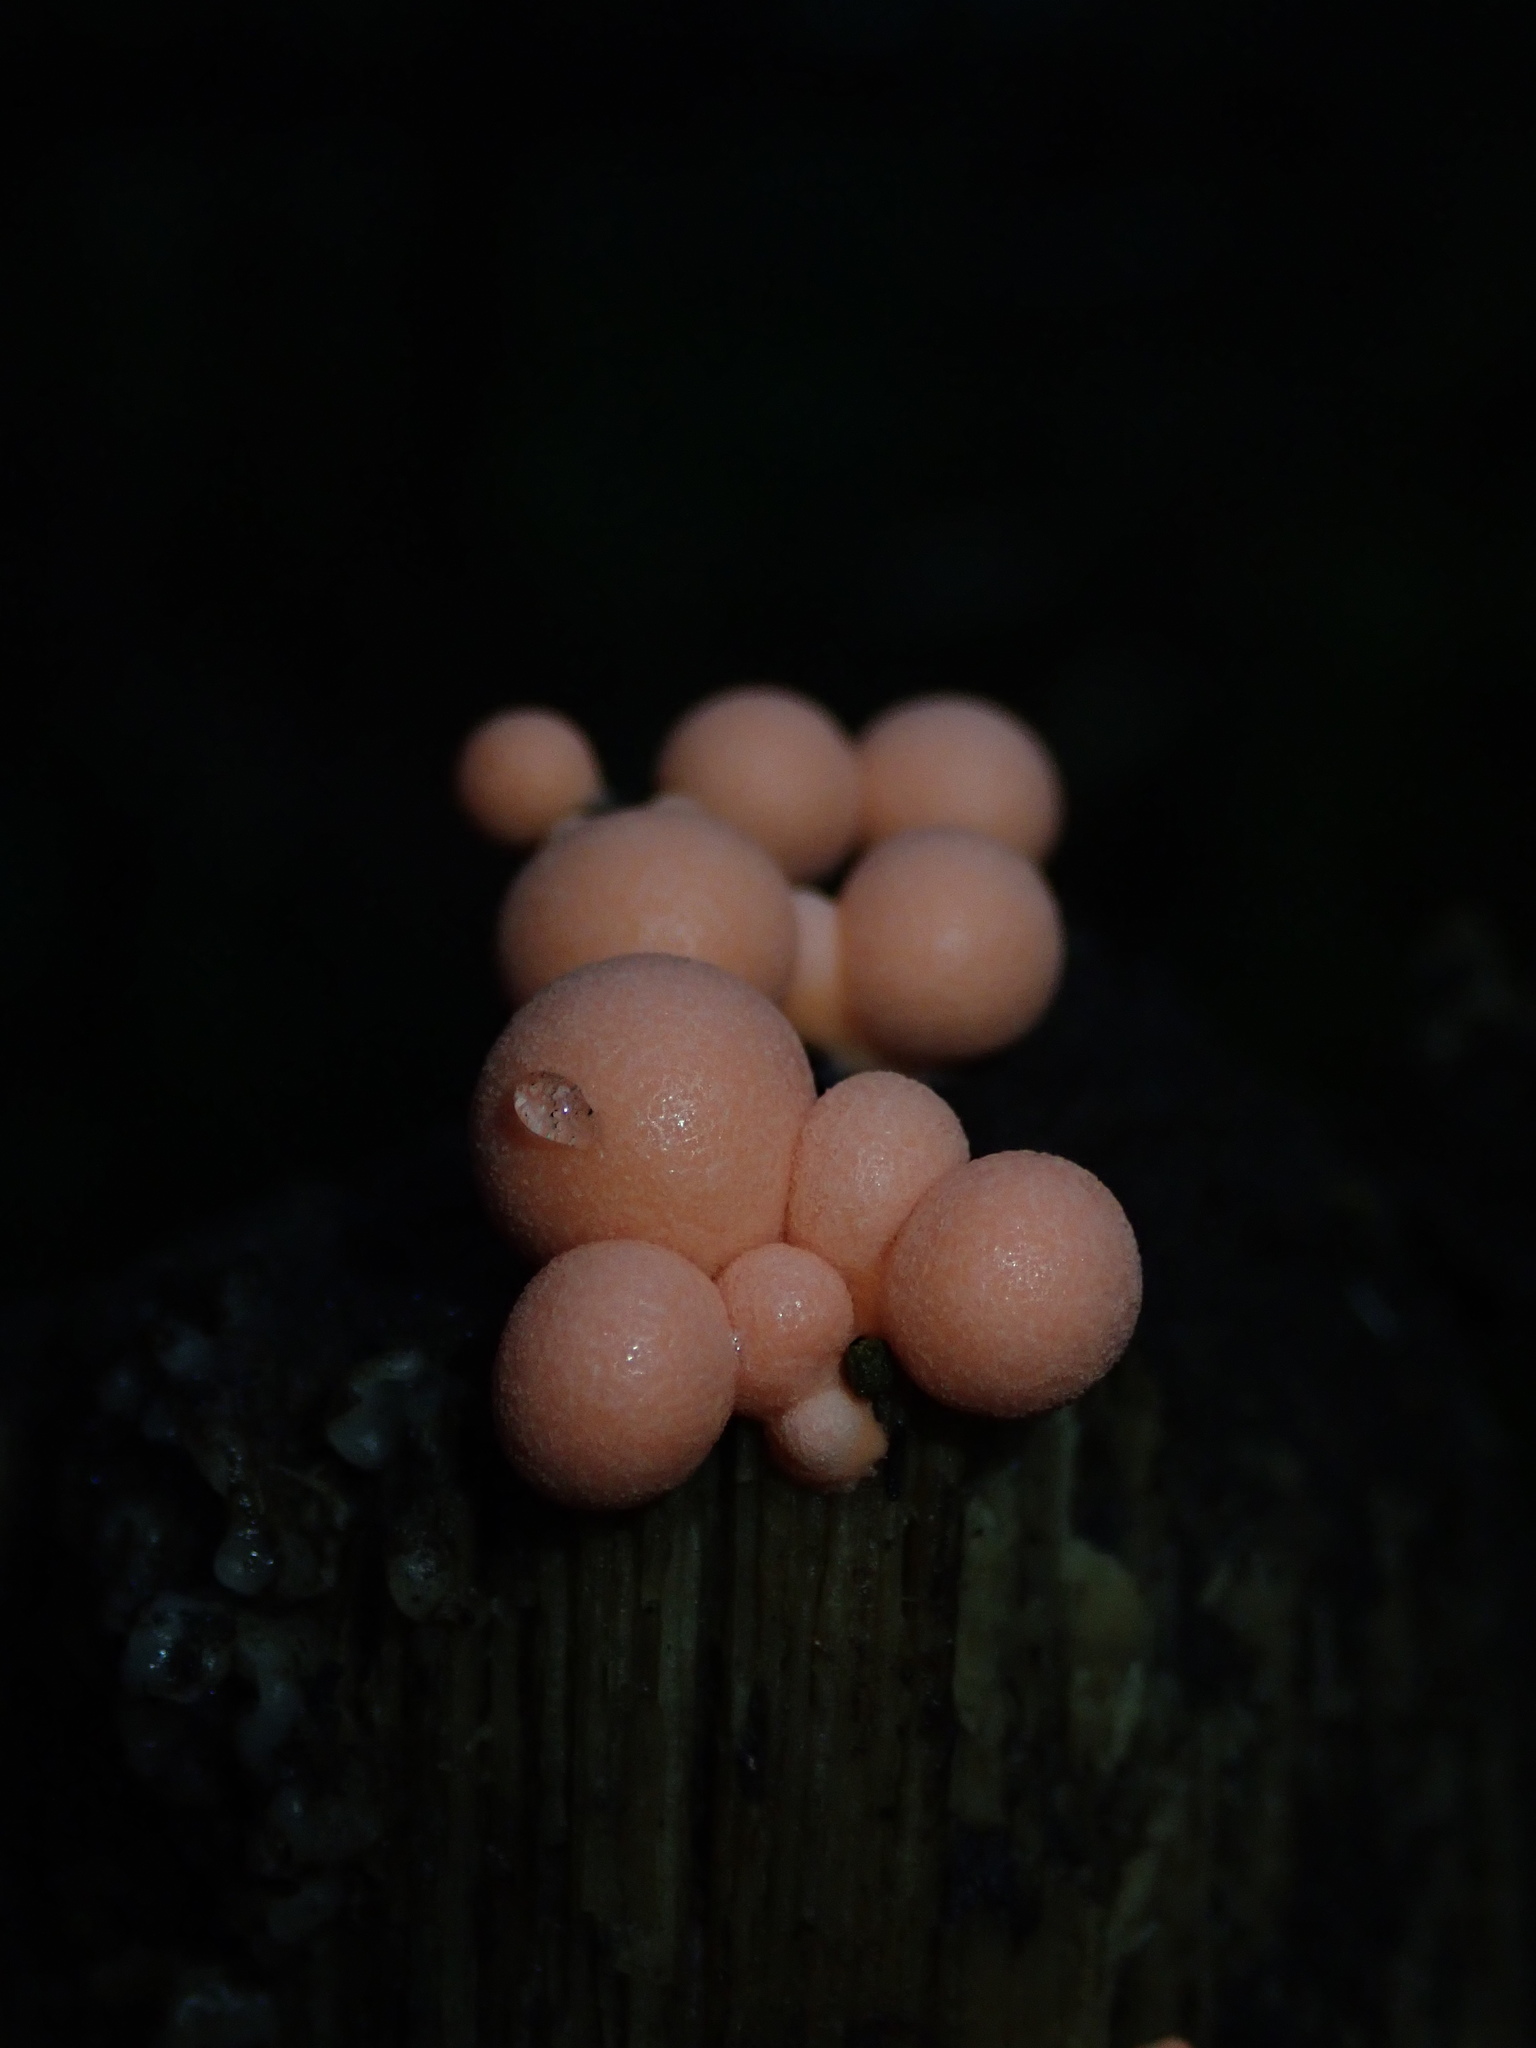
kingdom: Protozoa
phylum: Mycetozoa
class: Myxomycetes
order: Cribrariales
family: Tubiferaceae
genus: Lycogala
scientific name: Lycogala epidendrum
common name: Wolf's milk
